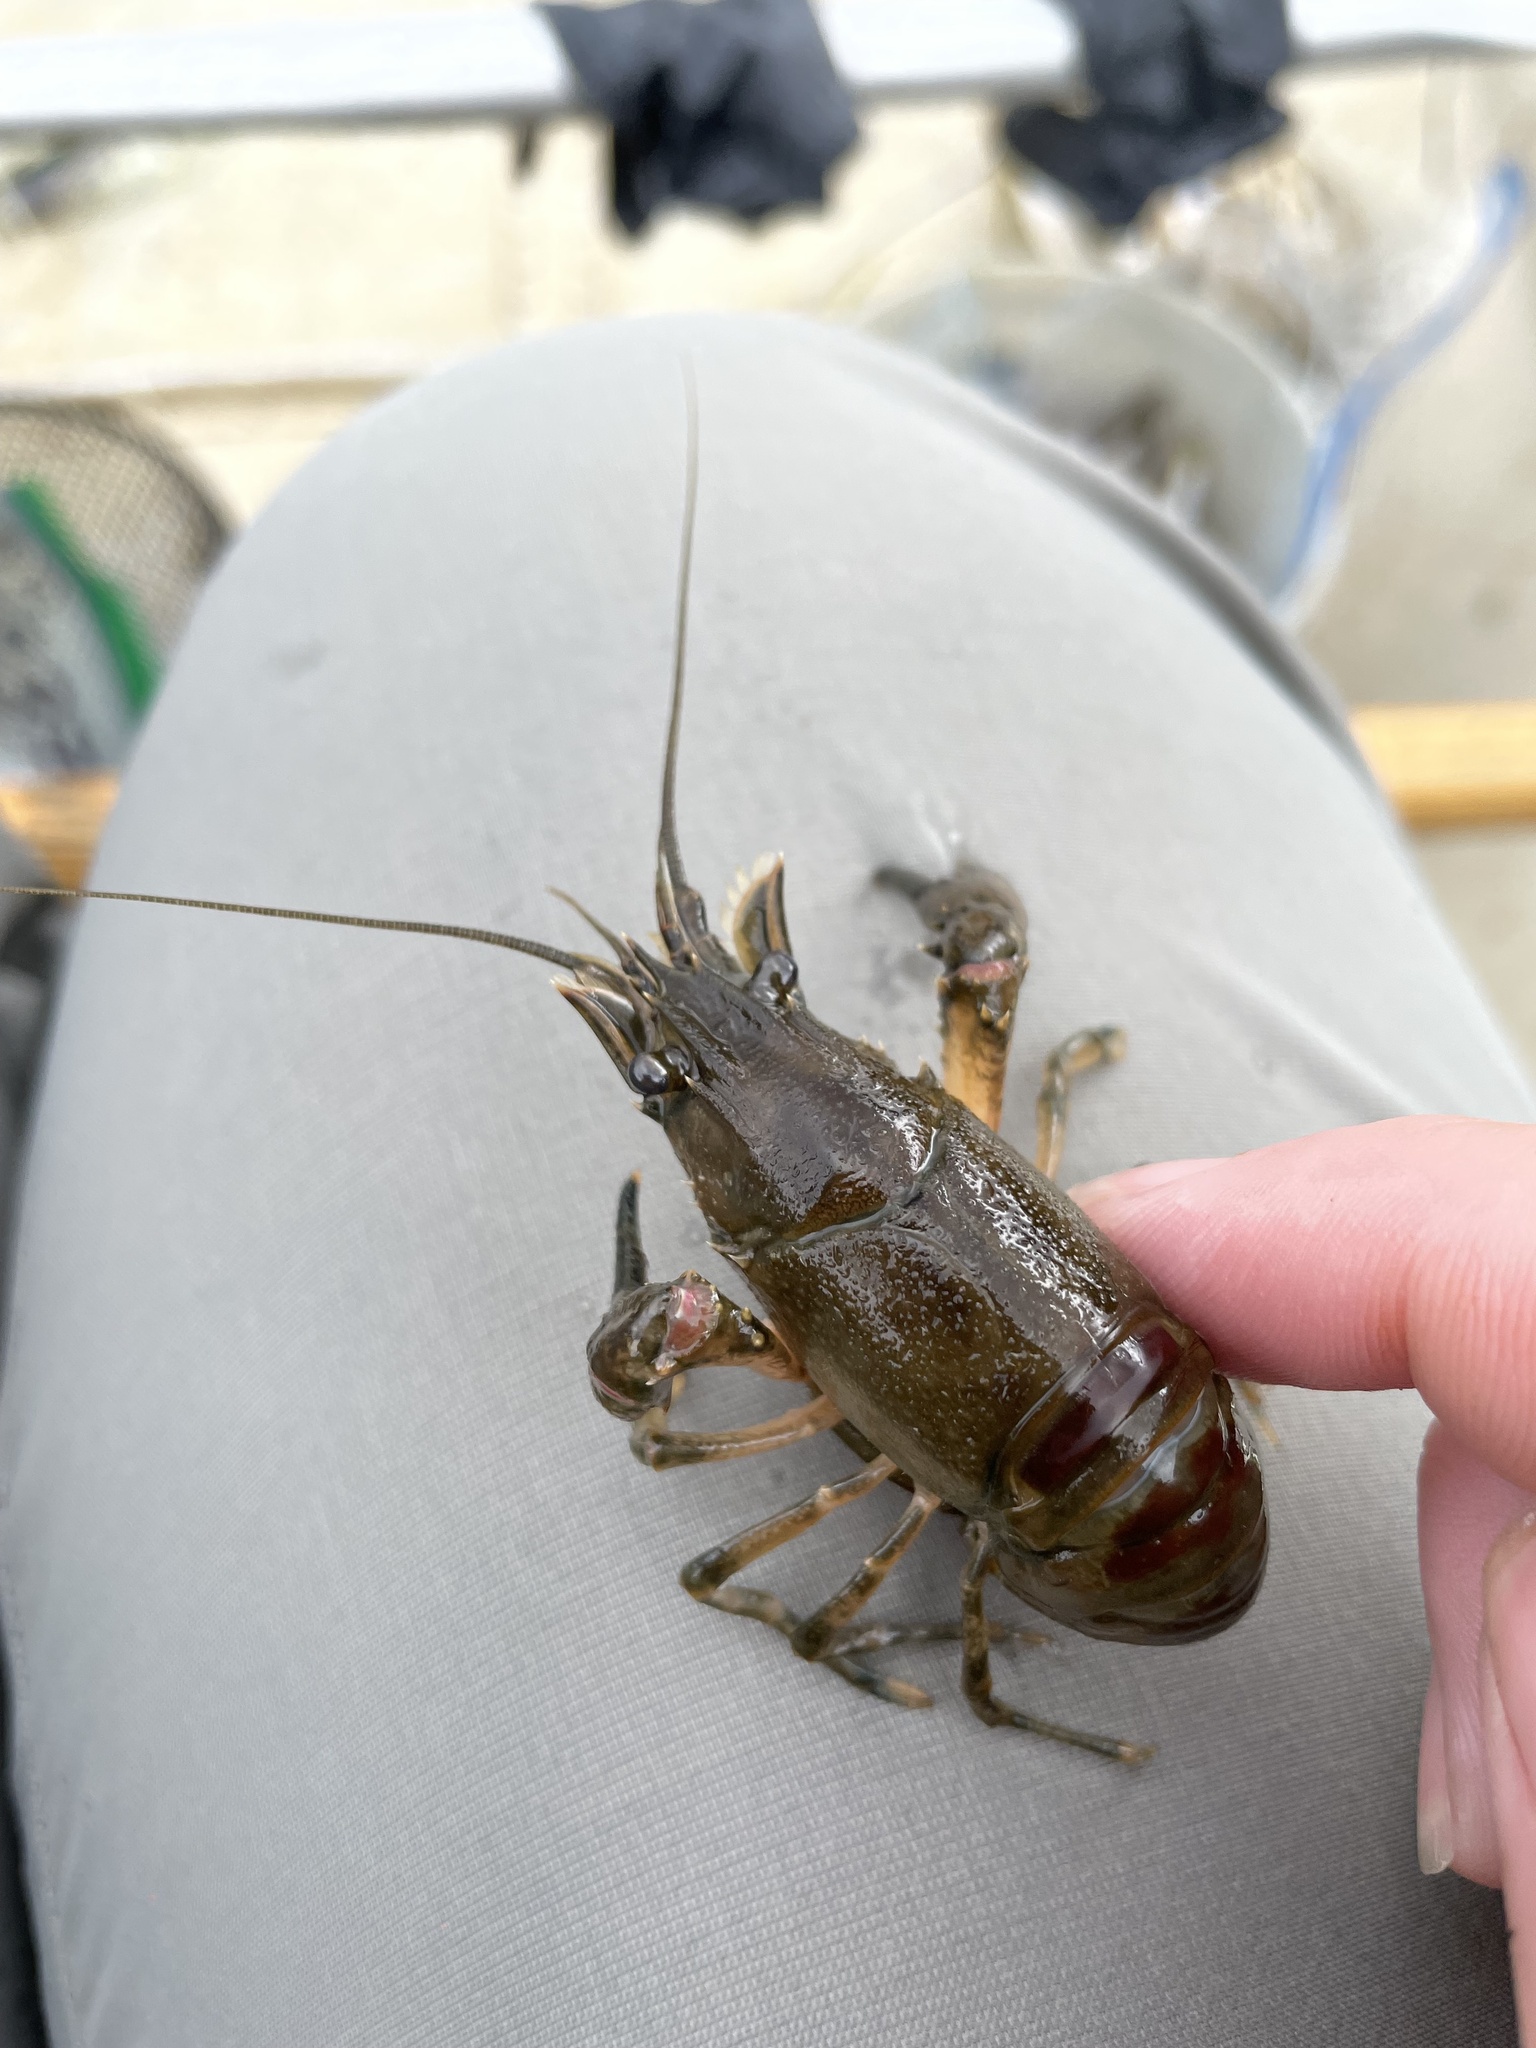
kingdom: Animalia
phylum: Arthropoda
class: Malacostraca
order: Decapoda
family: Cambaridae
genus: Faxonius
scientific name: Faxonius limosus
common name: American crayfish
